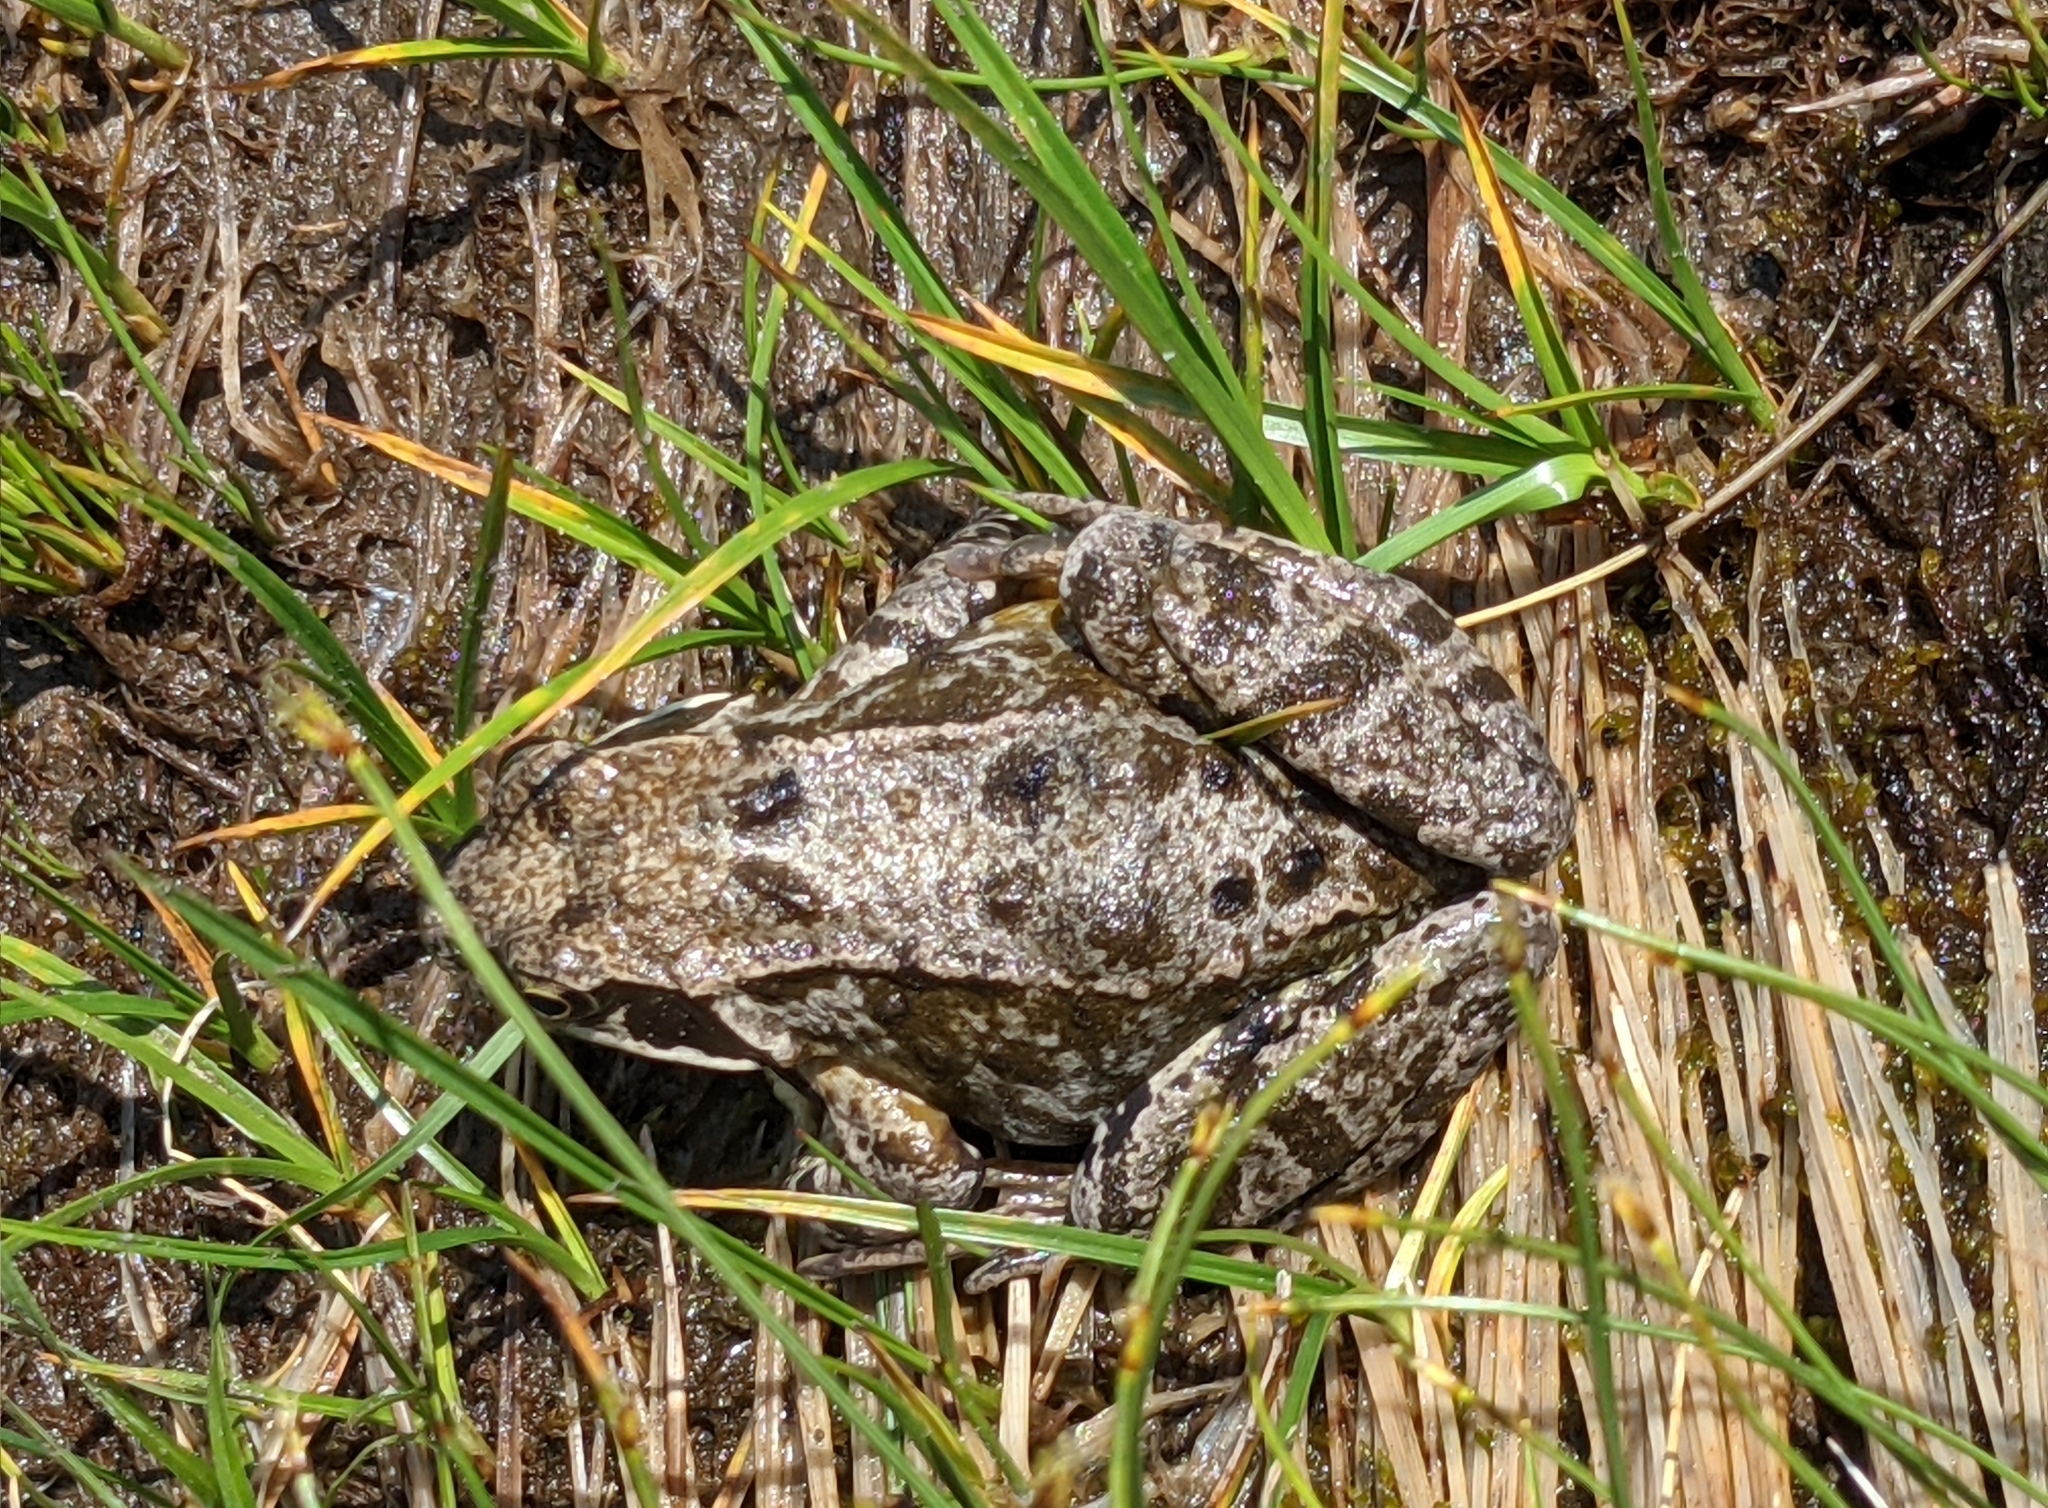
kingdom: Animalia
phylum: Chordata
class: Amphibia
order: Anura
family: Ranidae
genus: Rana
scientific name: Rana temporaria
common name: Common frog
